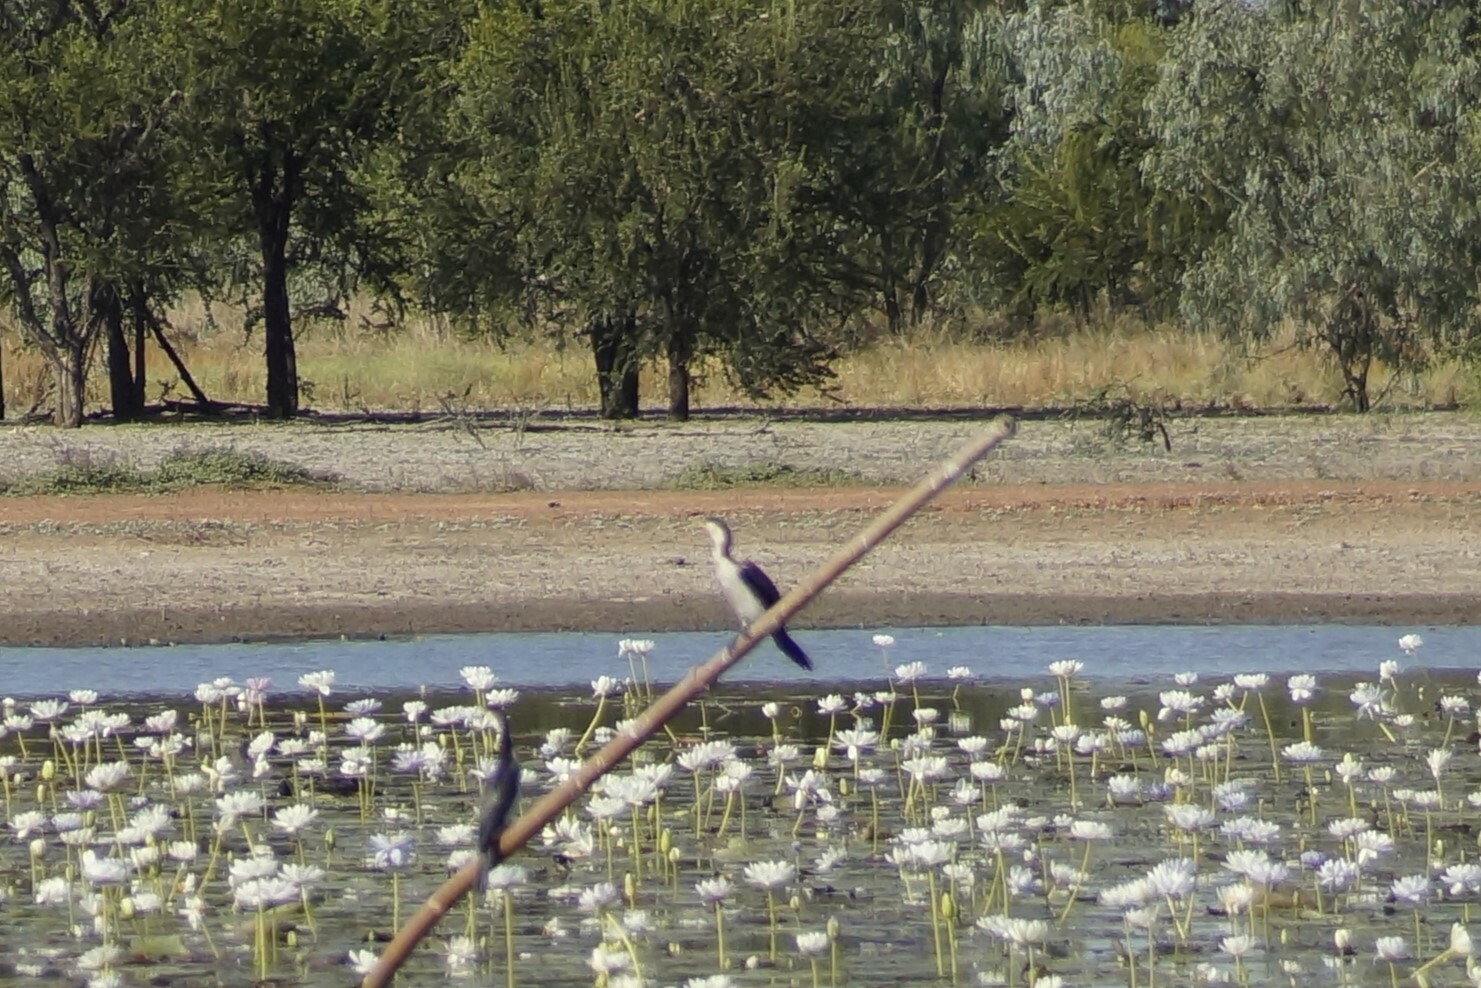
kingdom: Animalia
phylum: Chordata
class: Aves
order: Suliformes
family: Phalacrocoracidae
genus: Microcarbo
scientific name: Microcarbo melanoleucos
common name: Little pied cormorant
